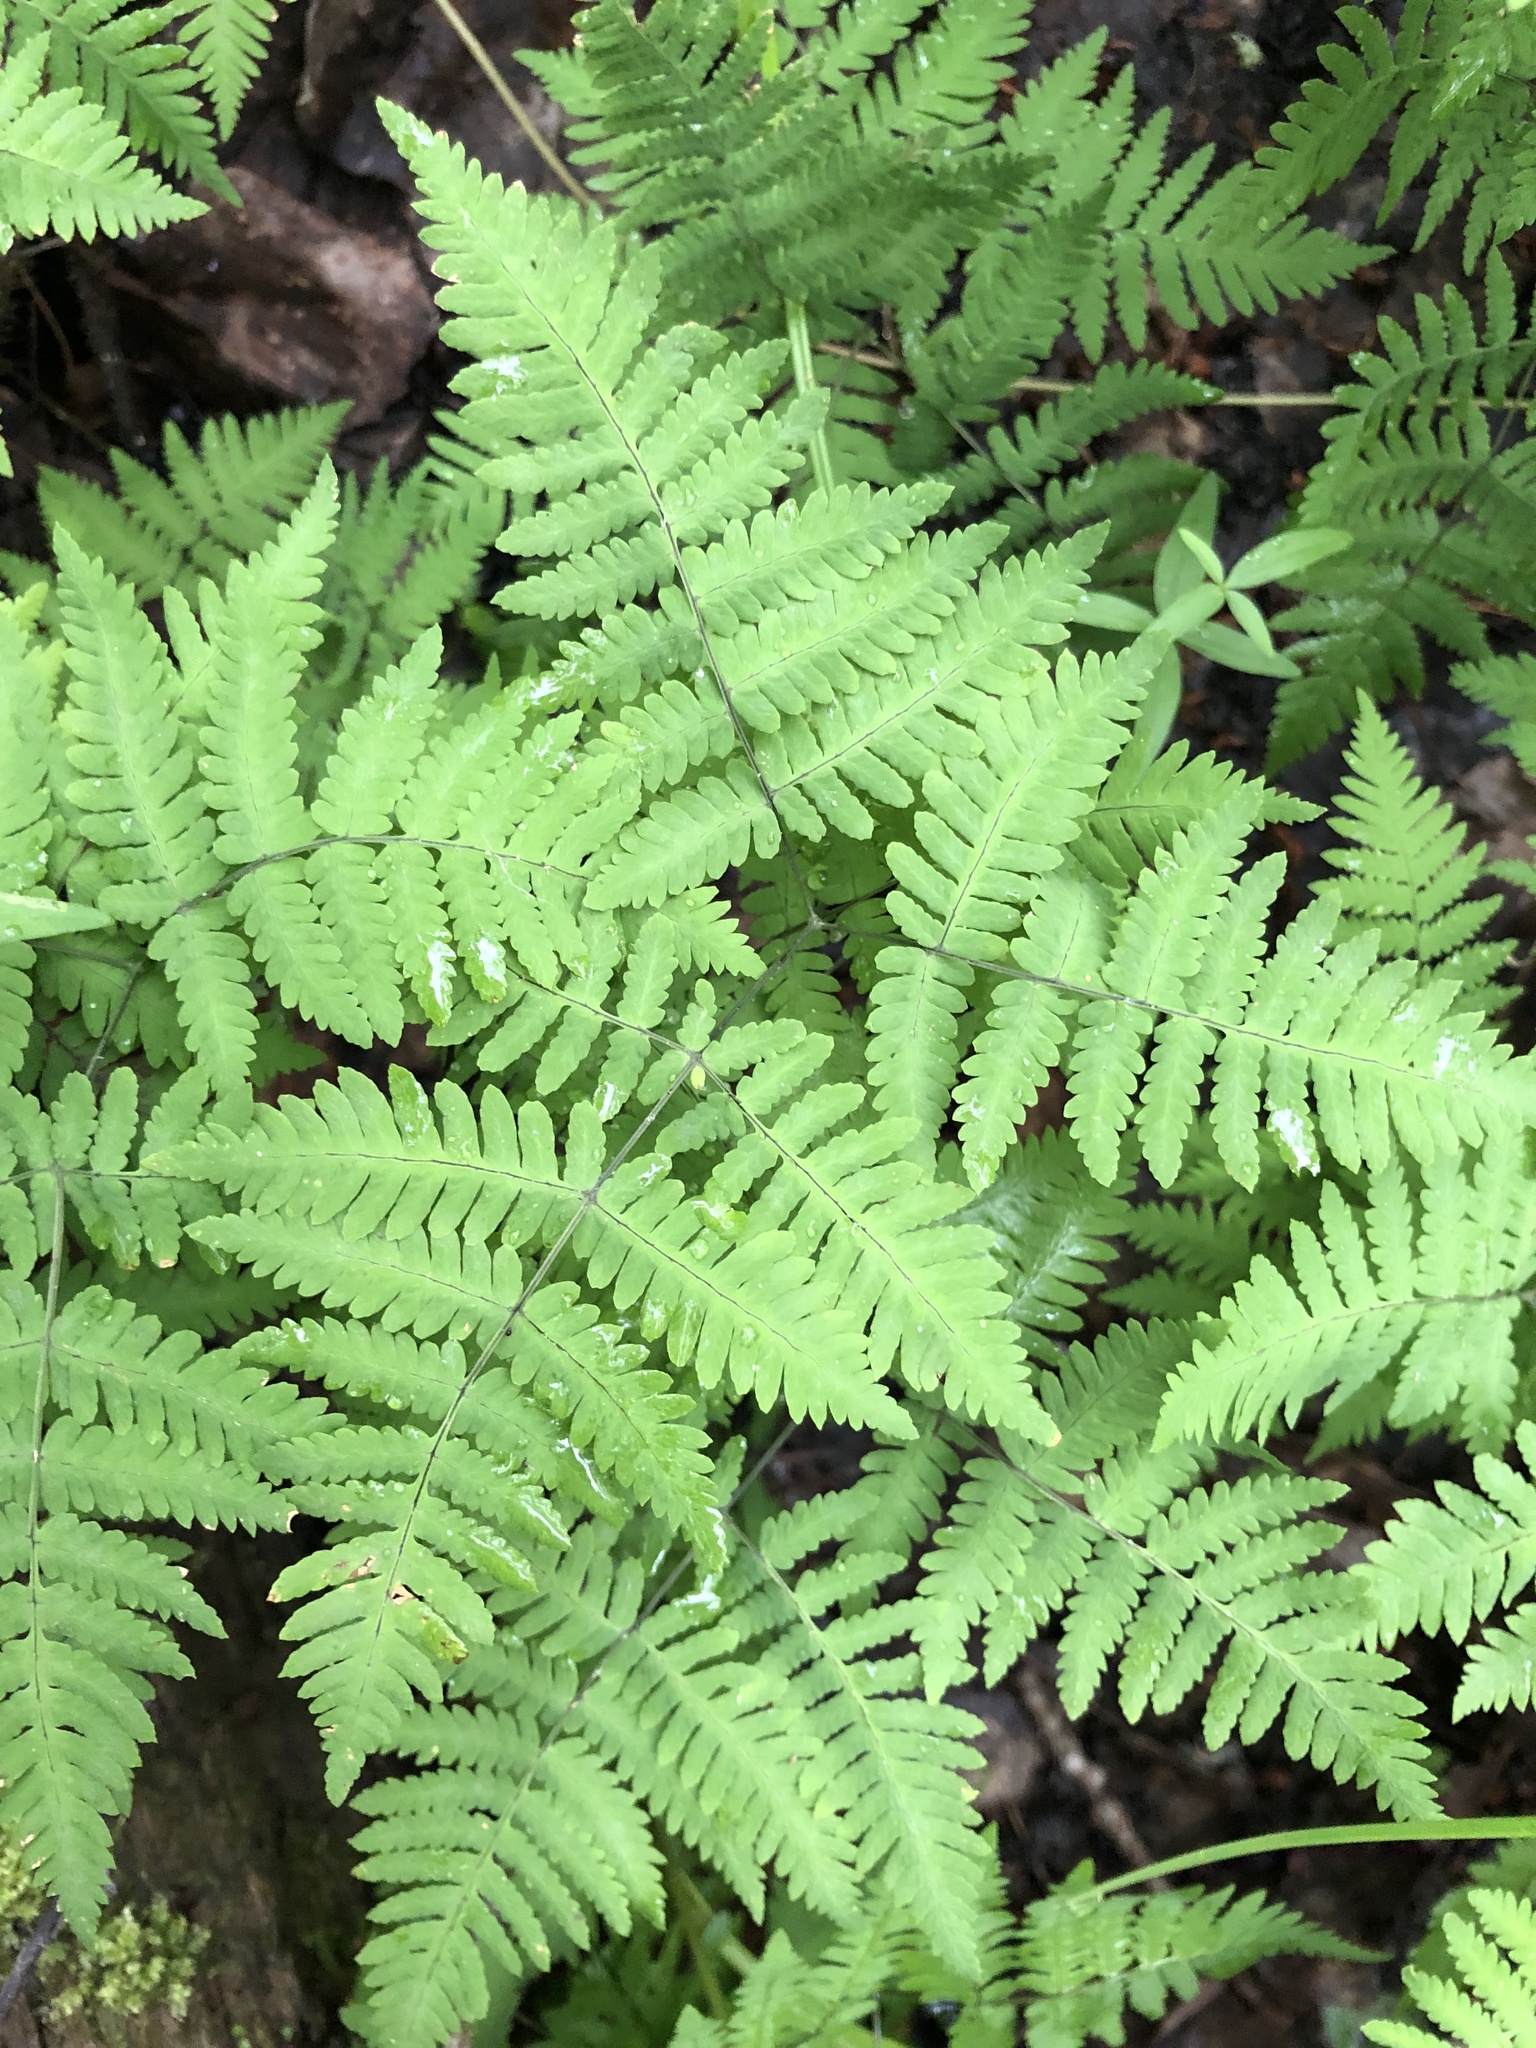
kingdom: Plantae
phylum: Tracheophyta
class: Polypodiopsida
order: Polypodiales
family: Cystopteridaceae
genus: Gymnocarpium
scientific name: Gymnocarpium dryopteris
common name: Oak fern
